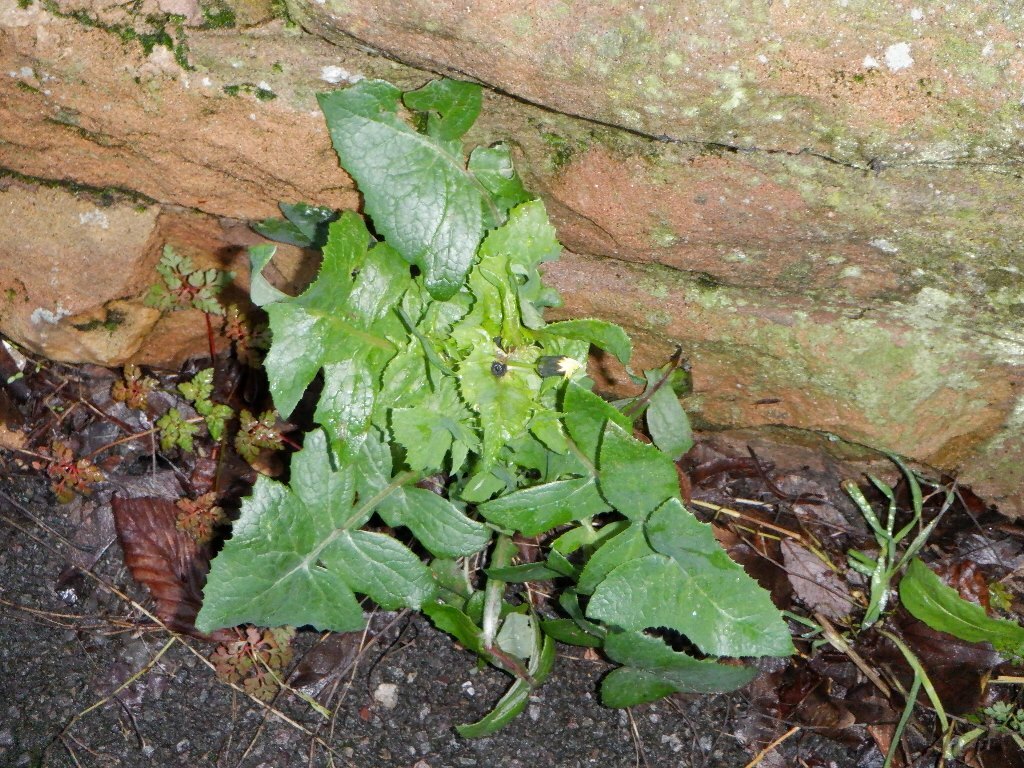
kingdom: Plantae
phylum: Tracheophyta
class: Magnoliopsida
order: Asterales
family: Asteraceae
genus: Sonchus
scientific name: Sonchus oleraceus
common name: Common sowthistle
